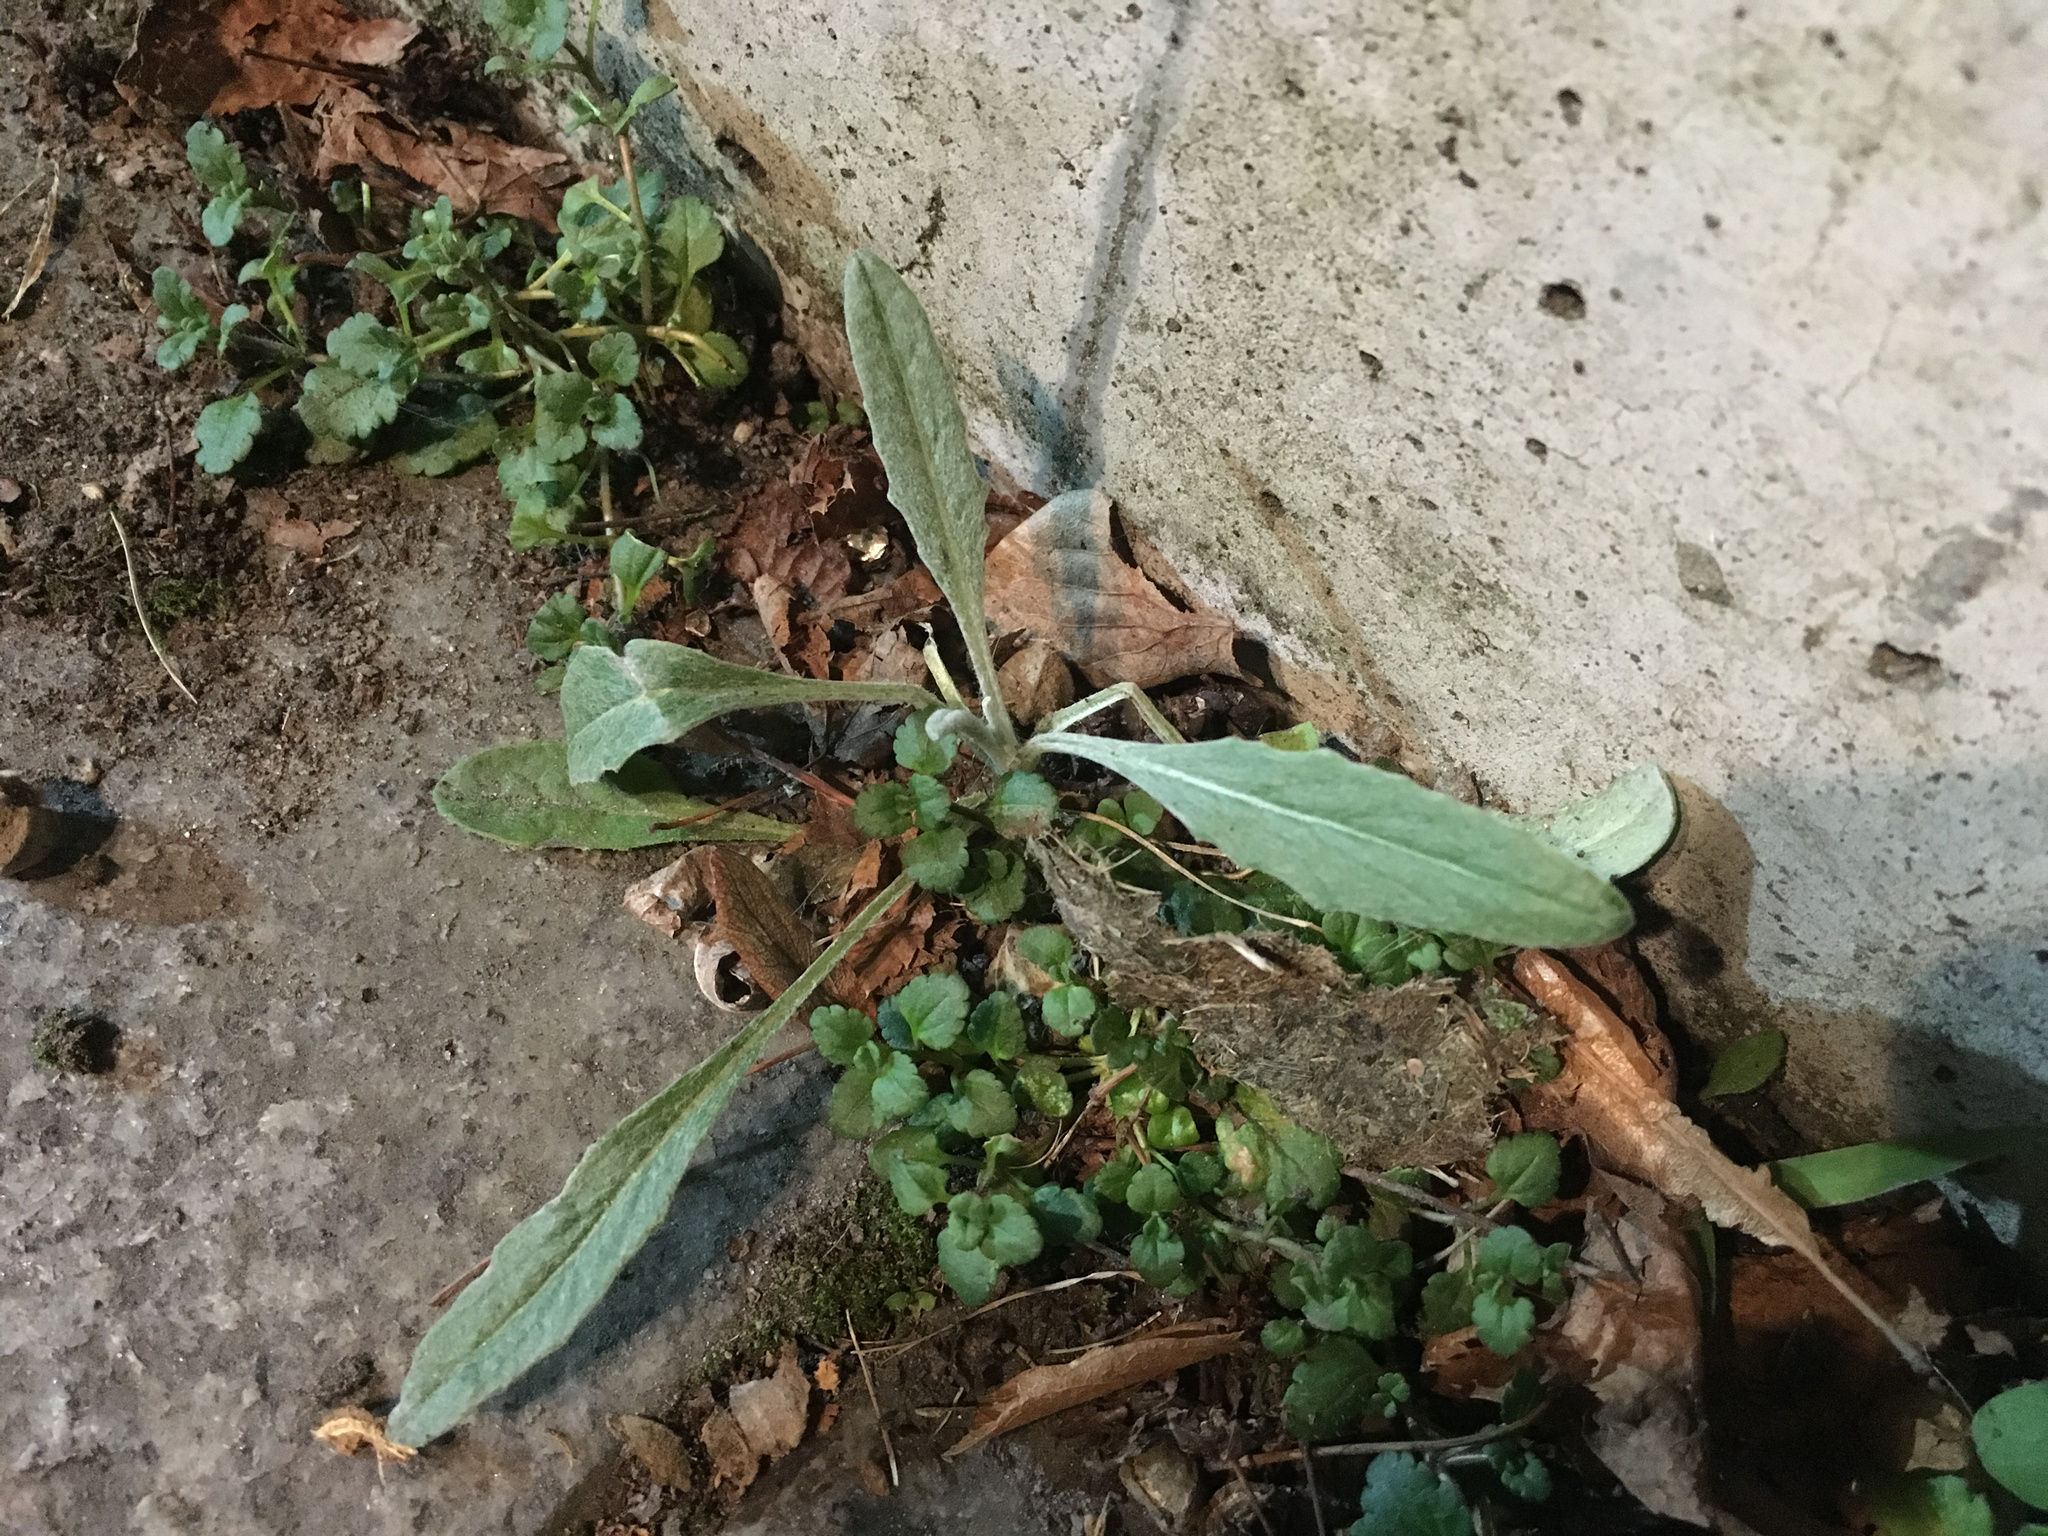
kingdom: Plantae
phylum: Tracheophyta
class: Magnoliopsida
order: Asterales
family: Asteraceae
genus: Senecio
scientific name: Senecio quadridentatus
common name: Cotton fireweed
